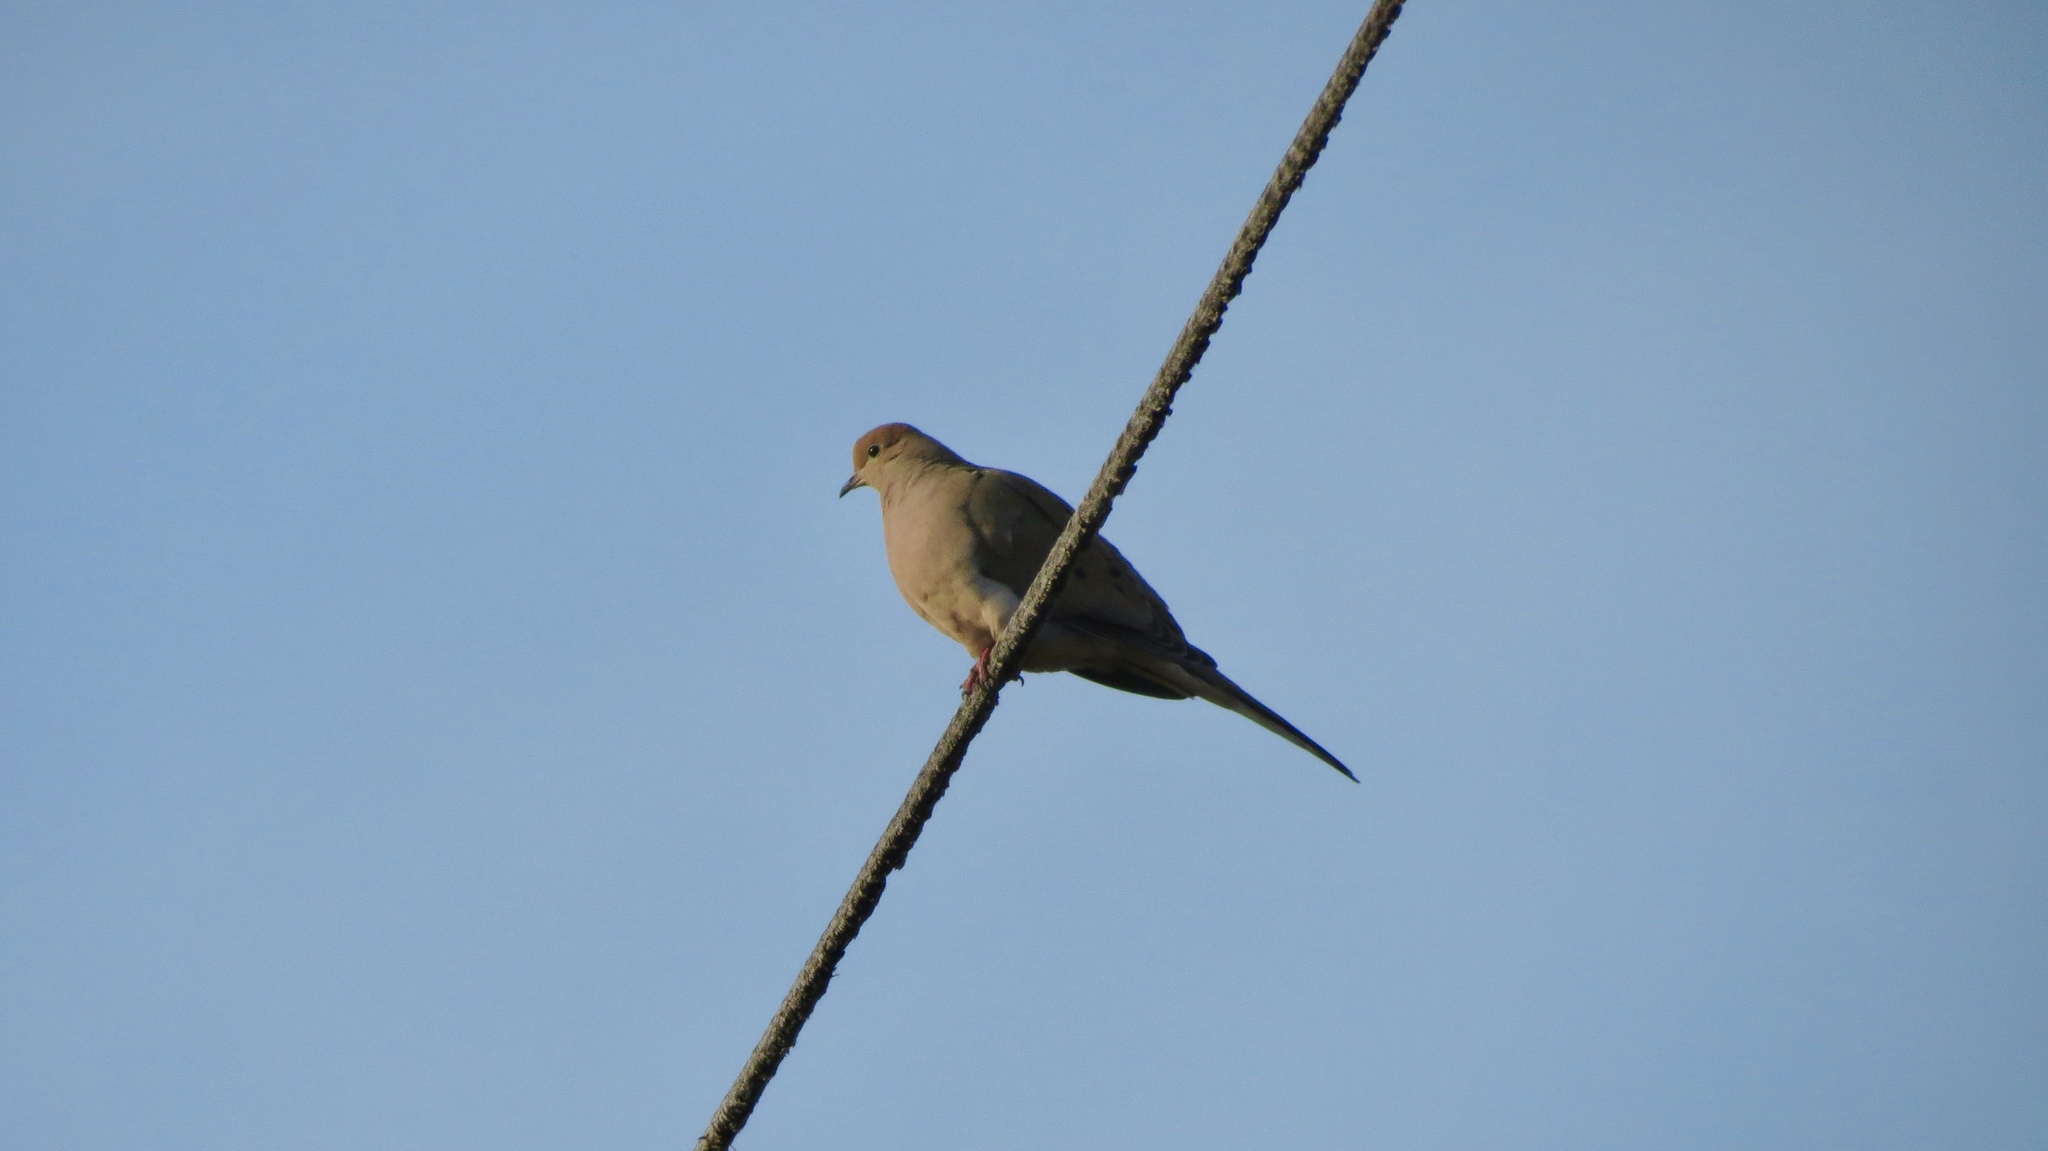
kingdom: Animalia
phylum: Chordata
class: Aves
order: Columbiformes
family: Columbidae
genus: Zenaida
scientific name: Zenaida macroura
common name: Mourning dove
